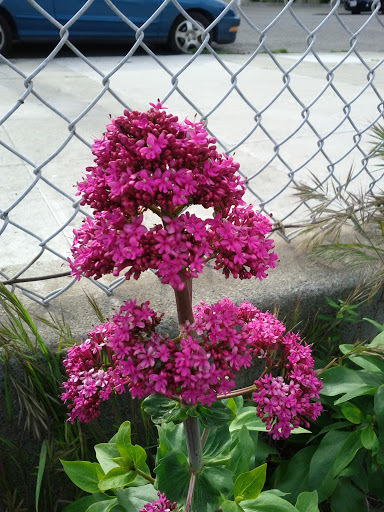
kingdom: Plantae
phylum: Tracheophyta
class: Magnoliopsida
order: Dipsacales
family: Caprifoliaceae
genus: Centranthus
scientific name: Centranthus ruber
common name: Red valerian
